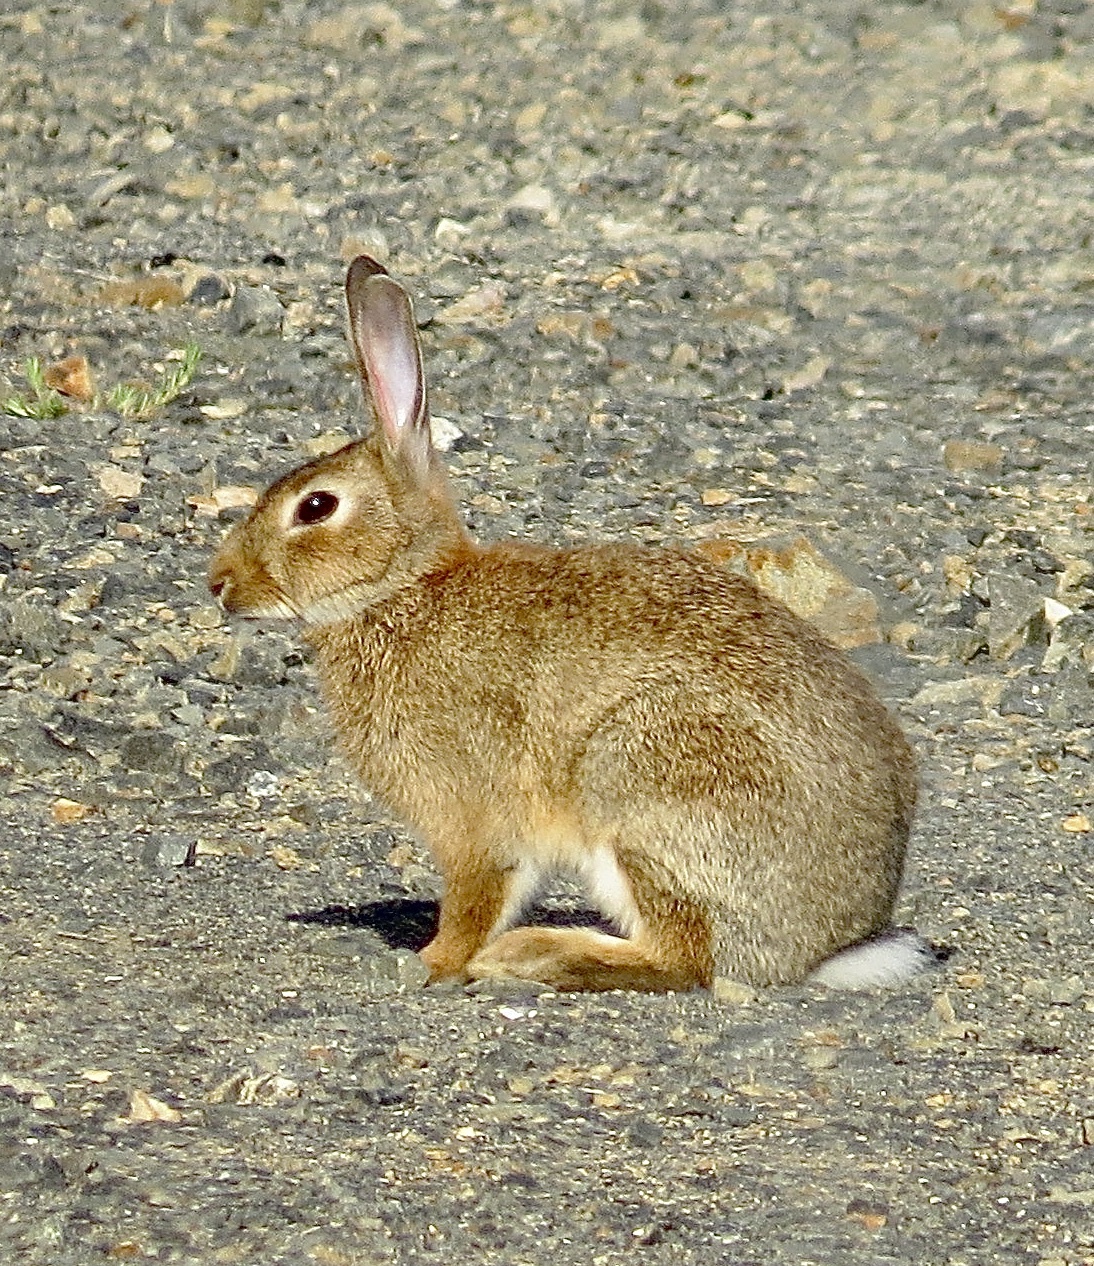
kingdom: Animalia
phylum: Chordata
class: Mammalia
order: Lagomorpha
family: Leporidae
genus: Oryctolagus
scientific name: Oryctolagus cuniculus
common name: European rabbit
